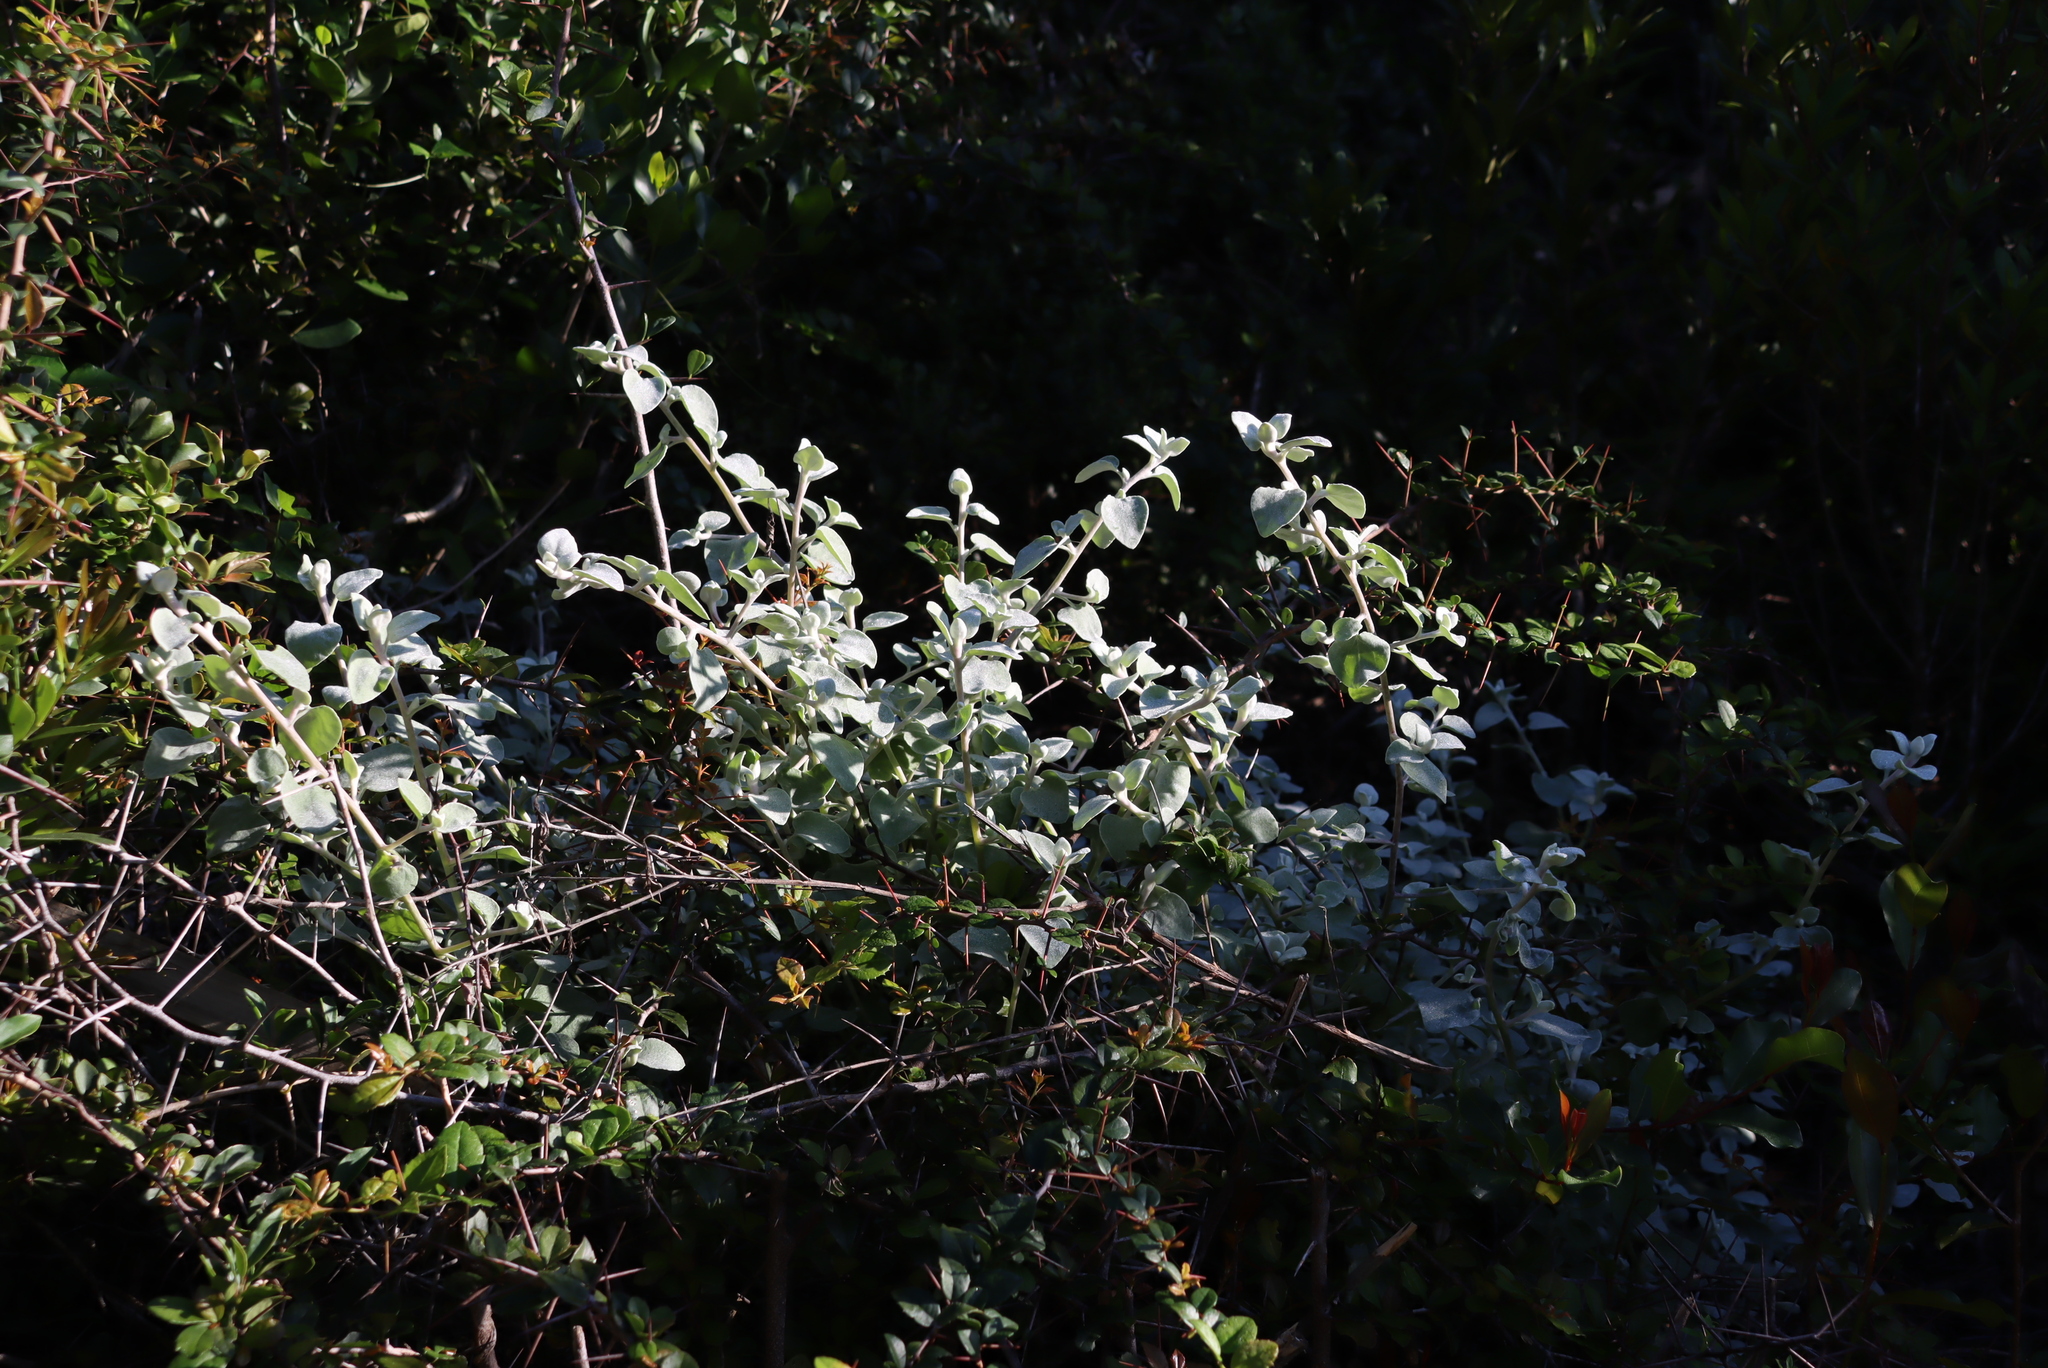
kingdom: Plantae
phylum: Tracheophyta
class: Magnoliopsida
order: Asterales
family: Asteraceae
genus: Helichrysum
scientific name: Helichrysum petiolare
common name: Licorice-plant
